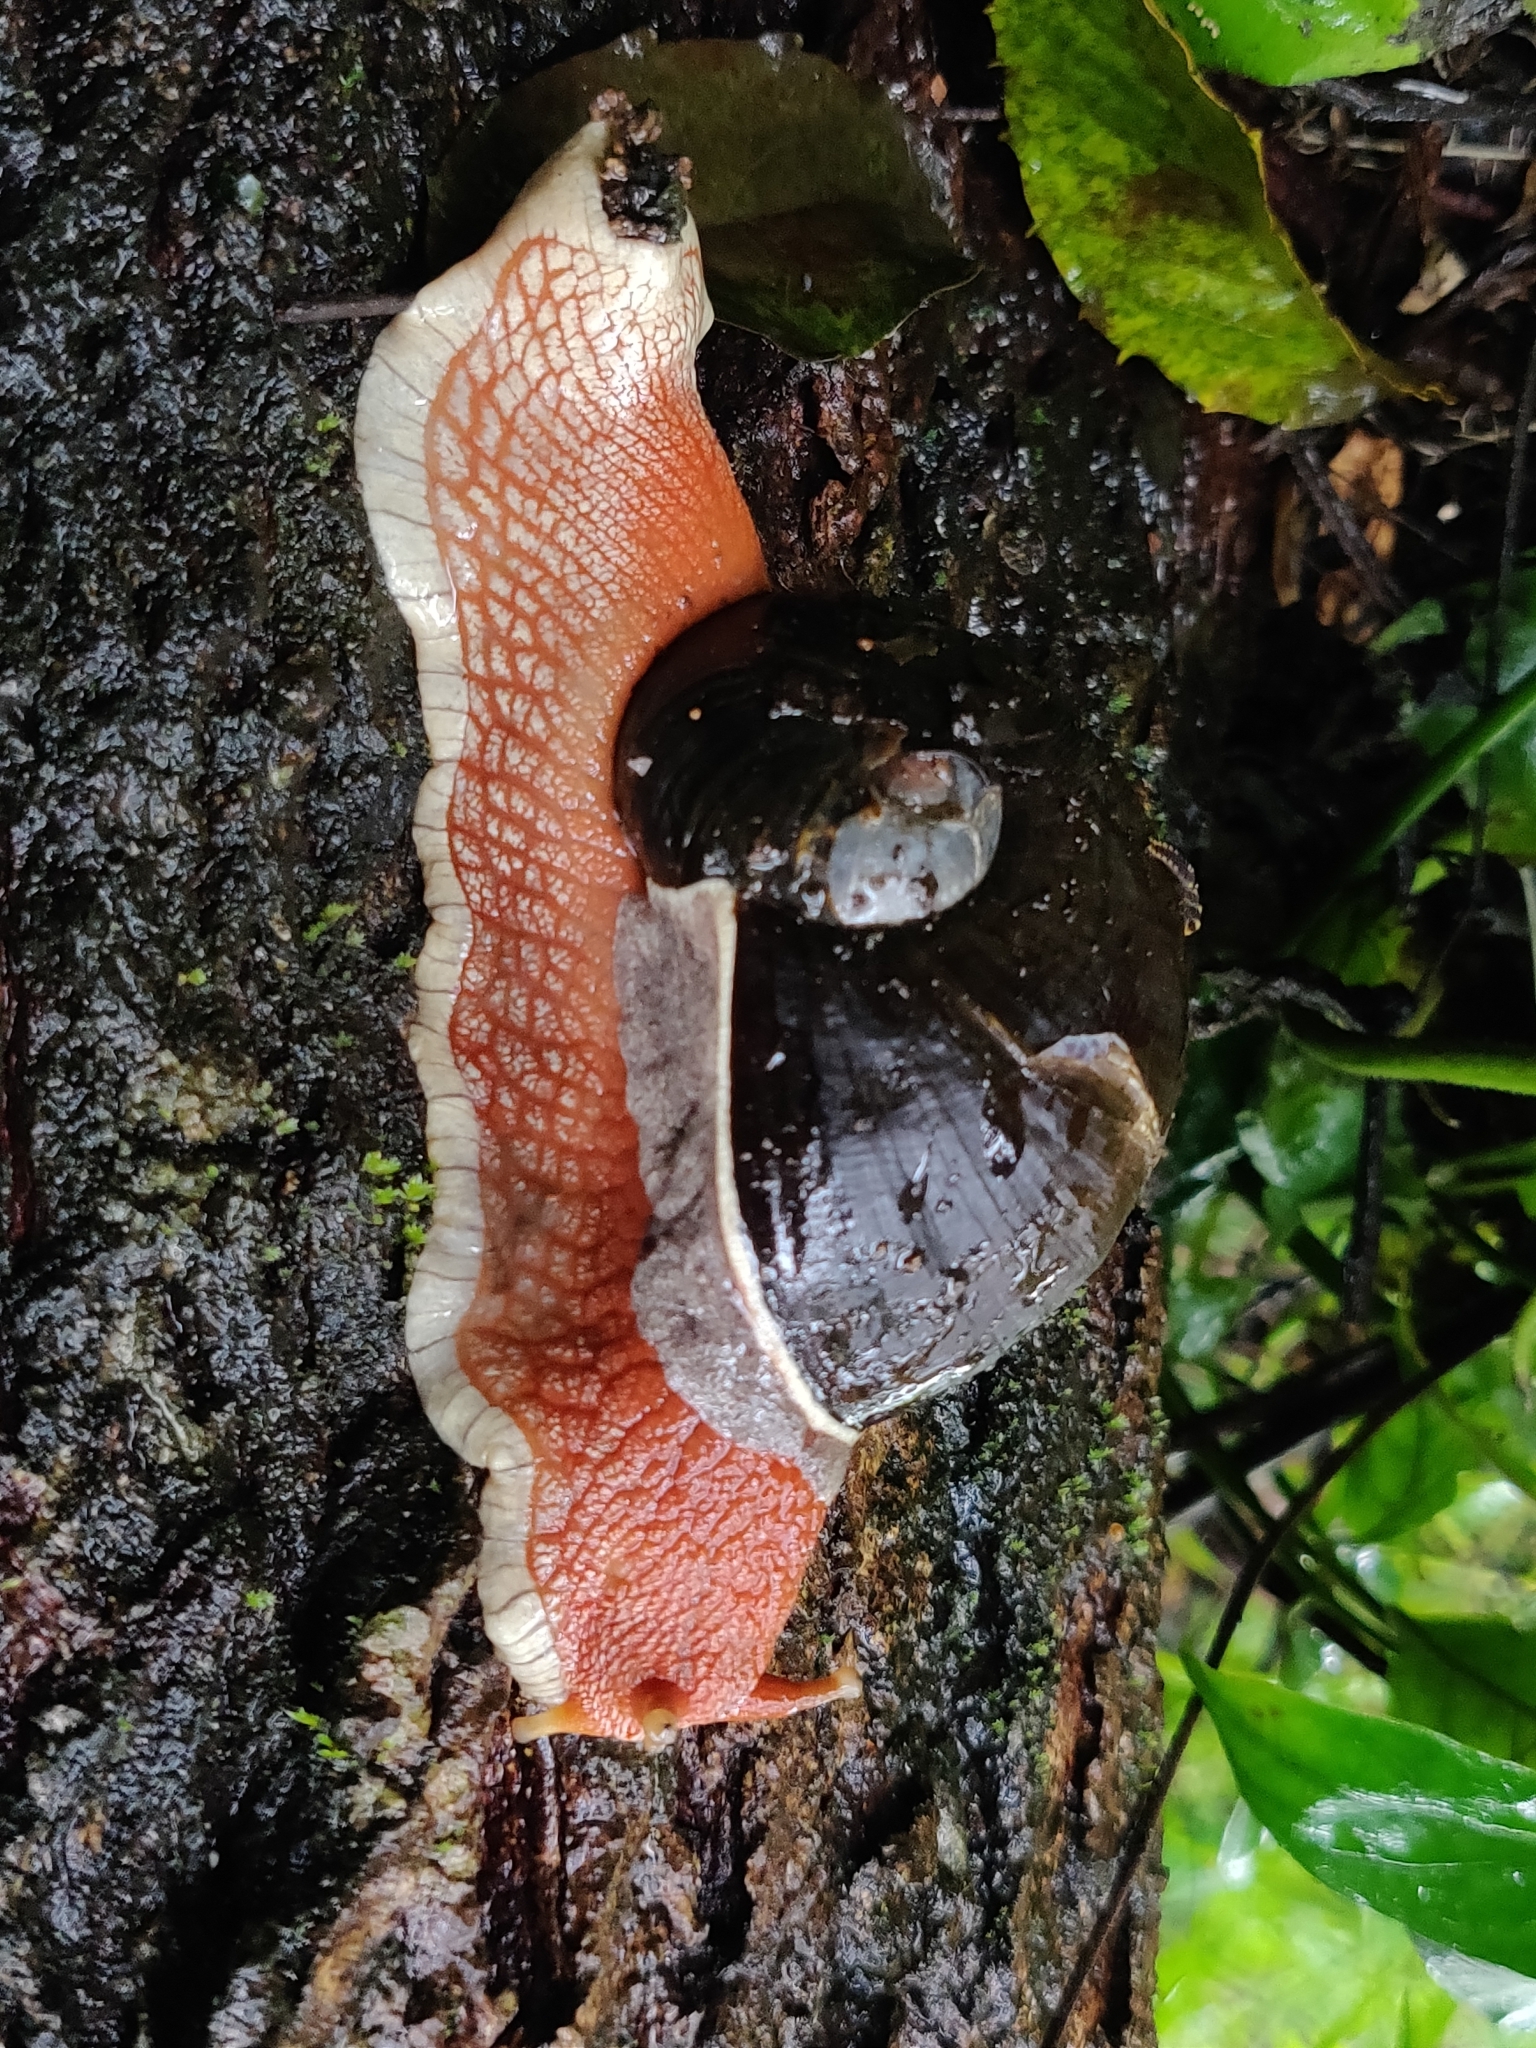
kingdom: Animalia
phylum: Mollusca
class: Gastropoda
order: Stylommatophora
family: Ariophantidae
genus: Indrella
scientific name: Indrella ampulla
